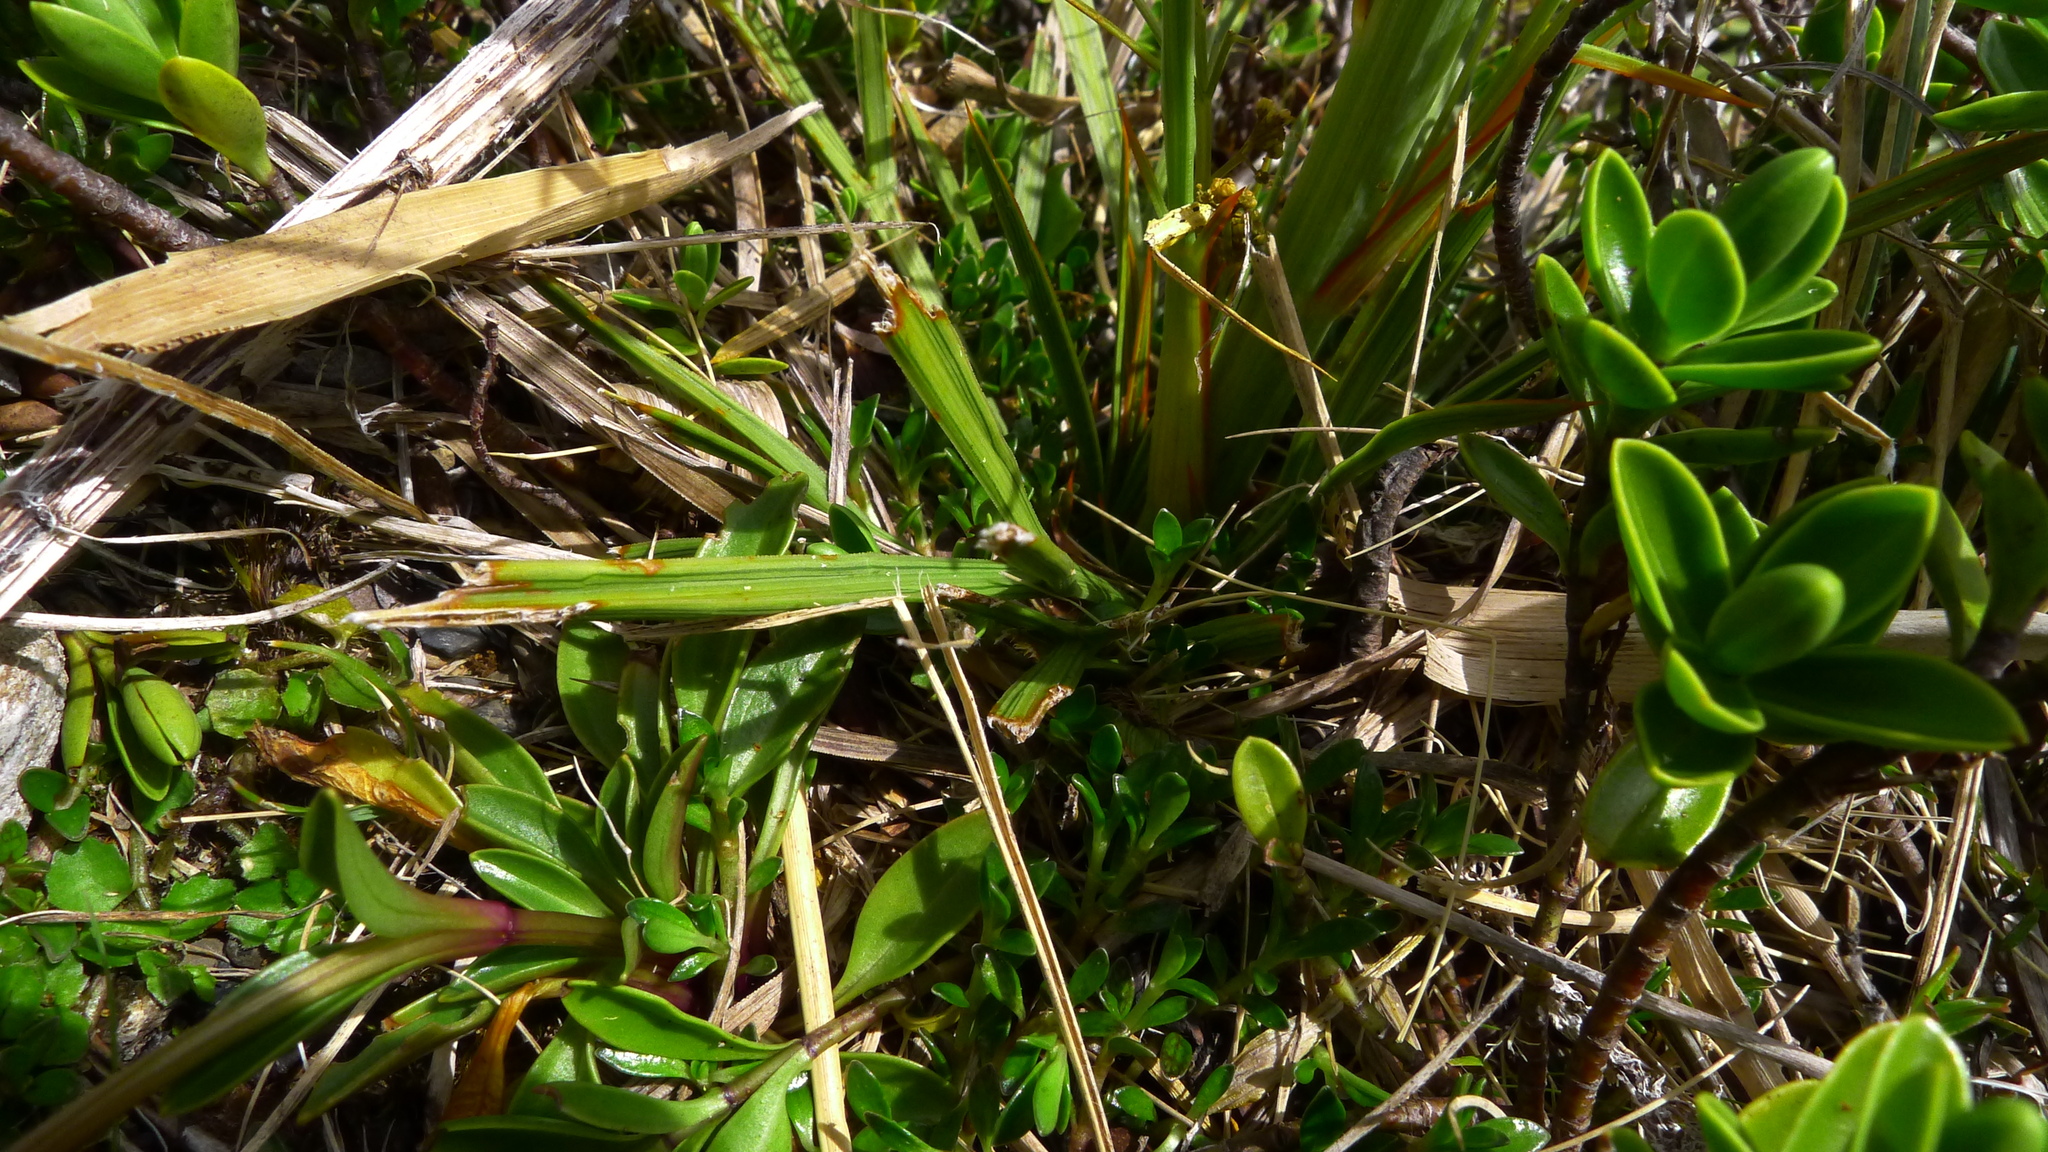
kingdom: Plantae
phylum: Tracheophyta
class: Magnoliopsida
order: Apiales
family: Apiaceae
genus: Aciphylla
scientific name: Aciphylla crenulata
